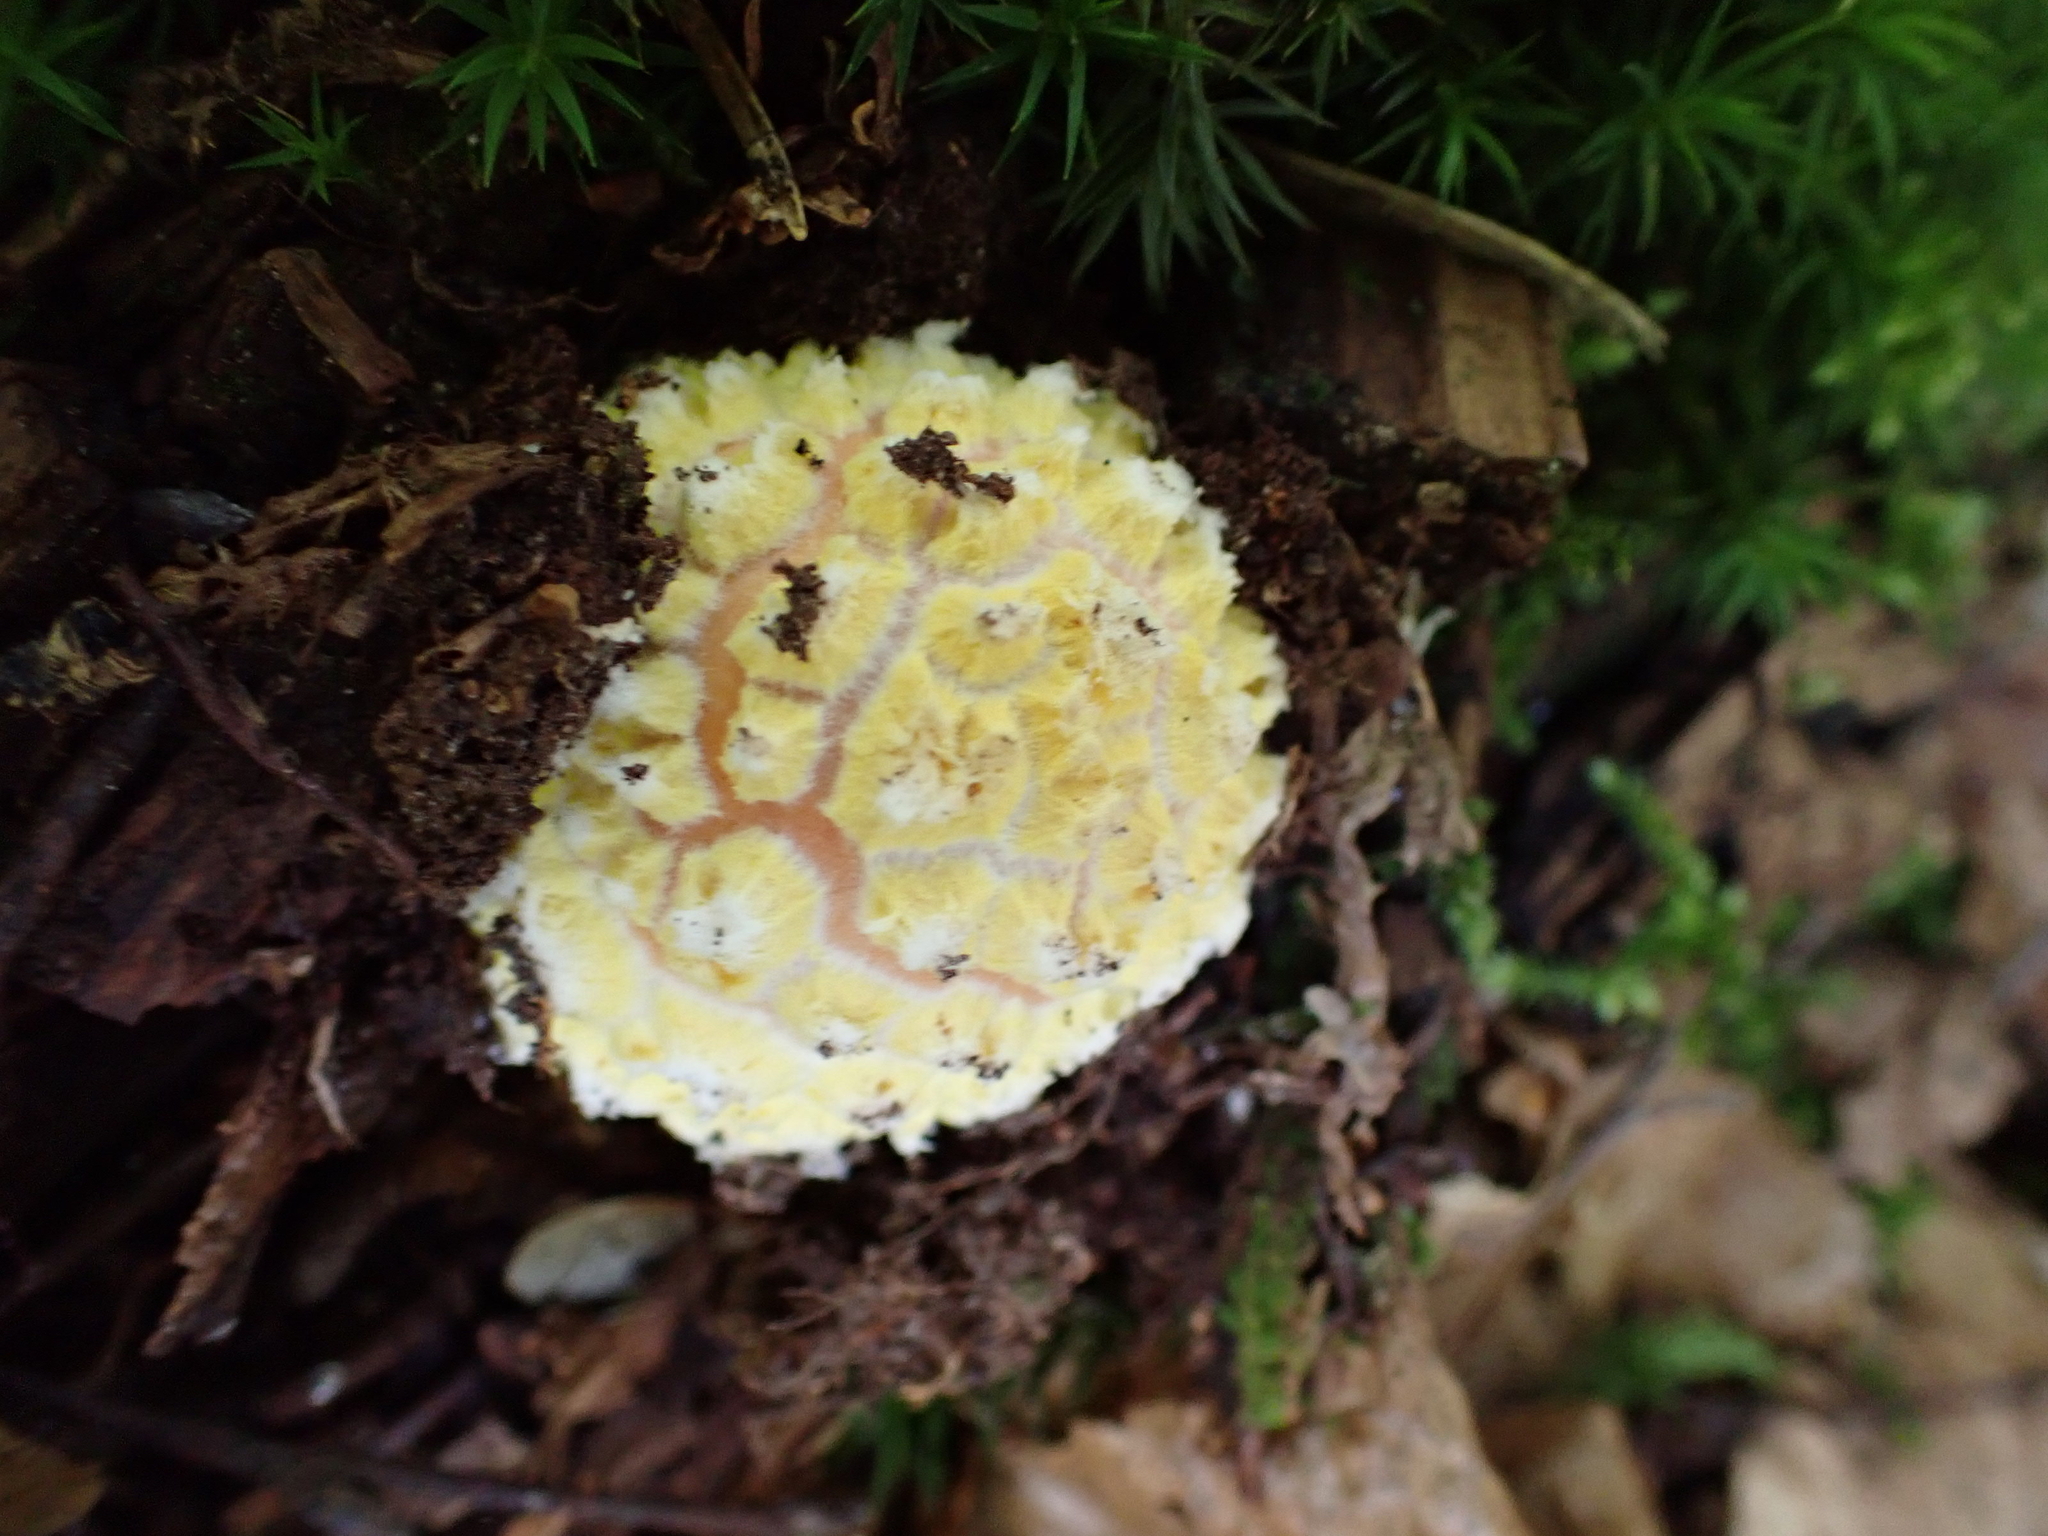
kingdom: Fungi
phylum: Basidiomycota
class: Agaricomycetes
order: Agaricales
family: Amanitaceae
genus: Amanita
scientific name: Amanita muscaria
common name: Fly agaric
